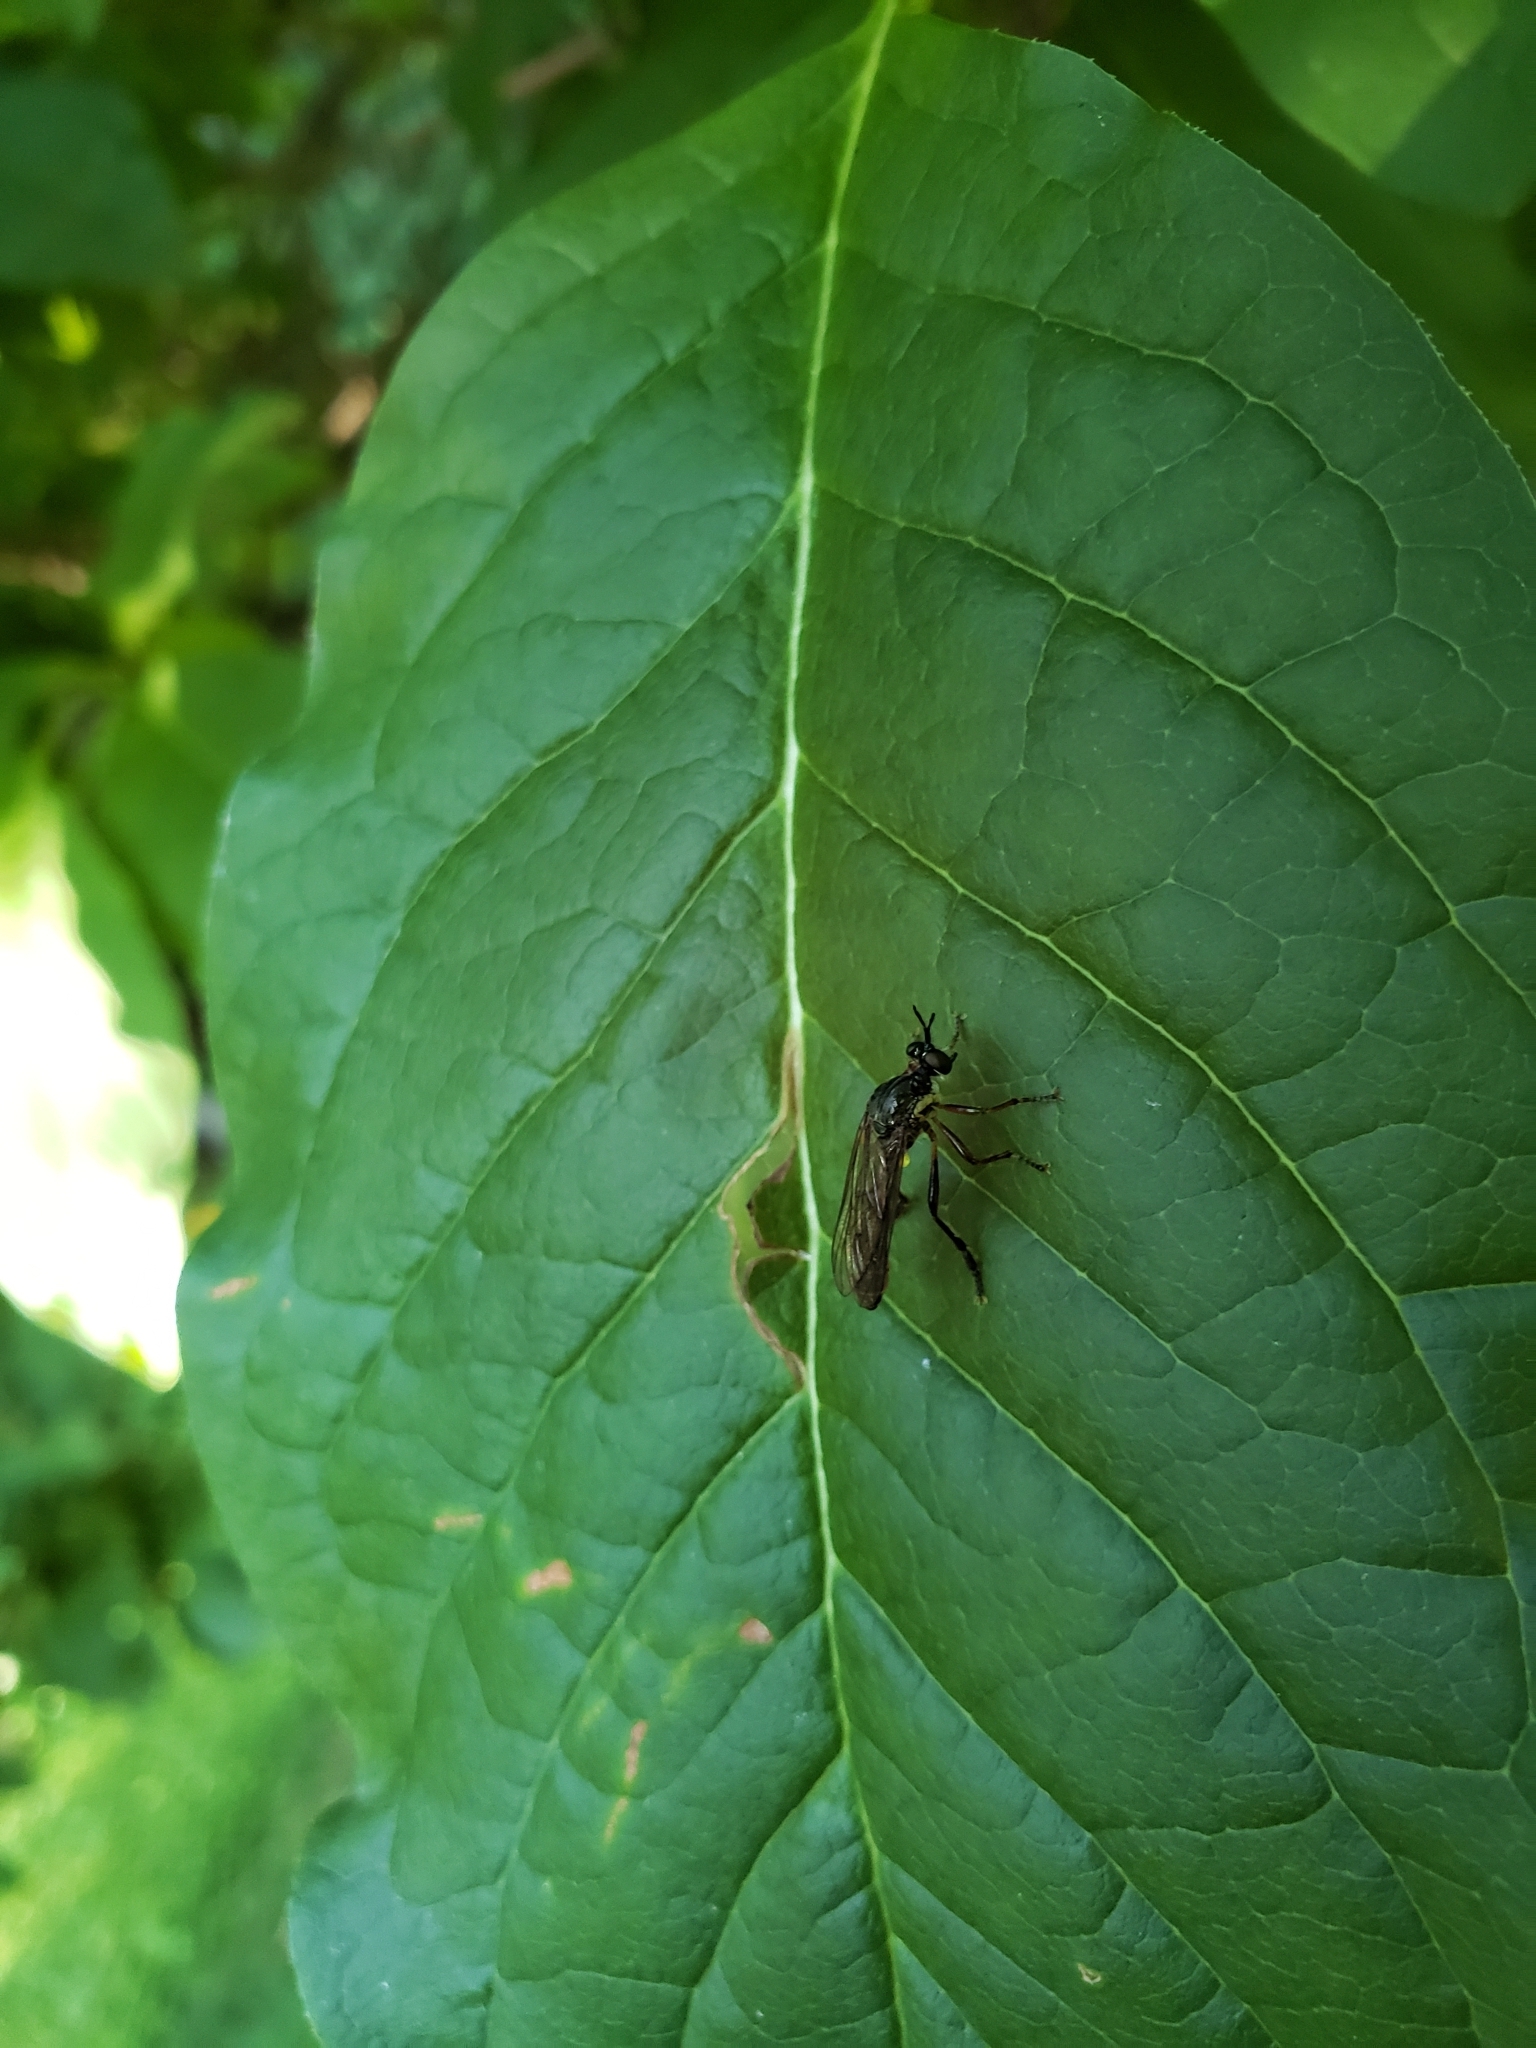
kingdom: Animalia
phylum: Arthropoda
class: Insecta
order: Diptera
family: Asilidae
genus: Dioctria
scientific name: Dioctria hyalipennis
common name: Stripe-legged robberfly
